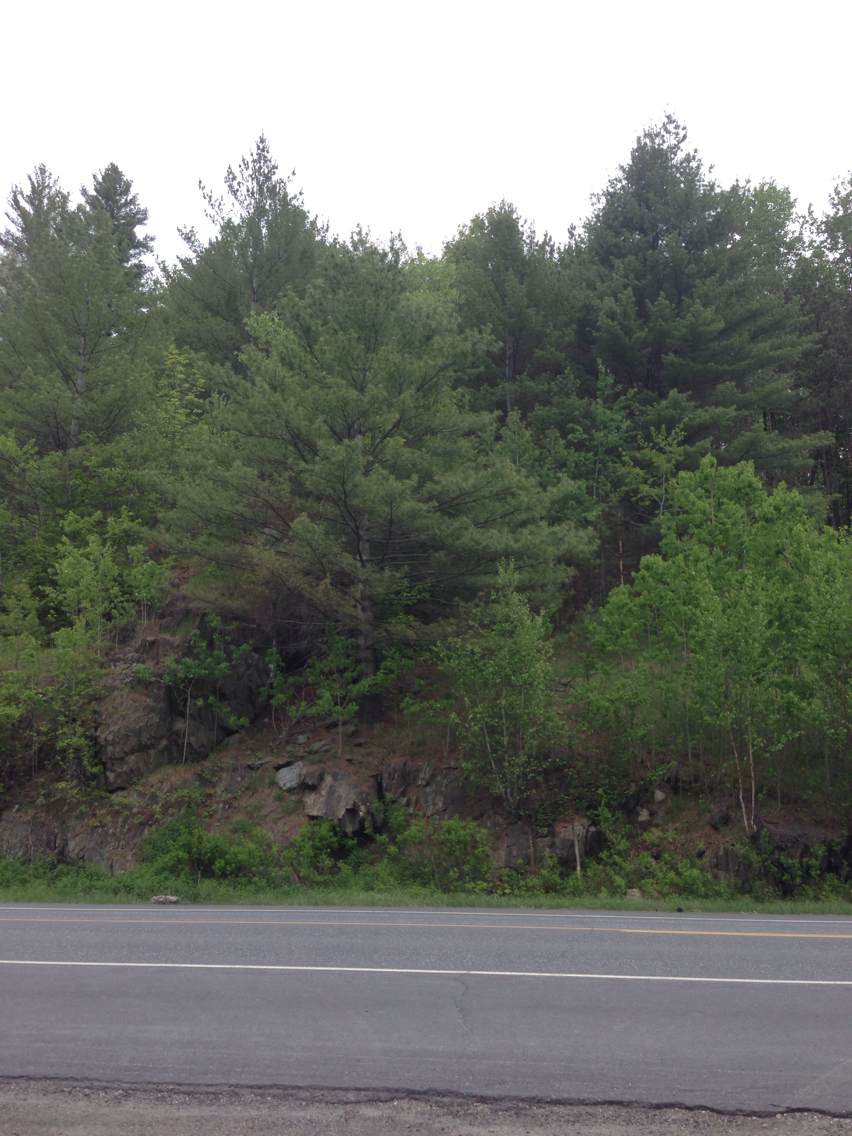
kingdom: Plantae
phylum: Tracheophyta
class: Pinopsida
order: Pinales
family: Pinaceae
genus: Pinus
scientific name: Pinus strobus
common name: Weymouth pine
